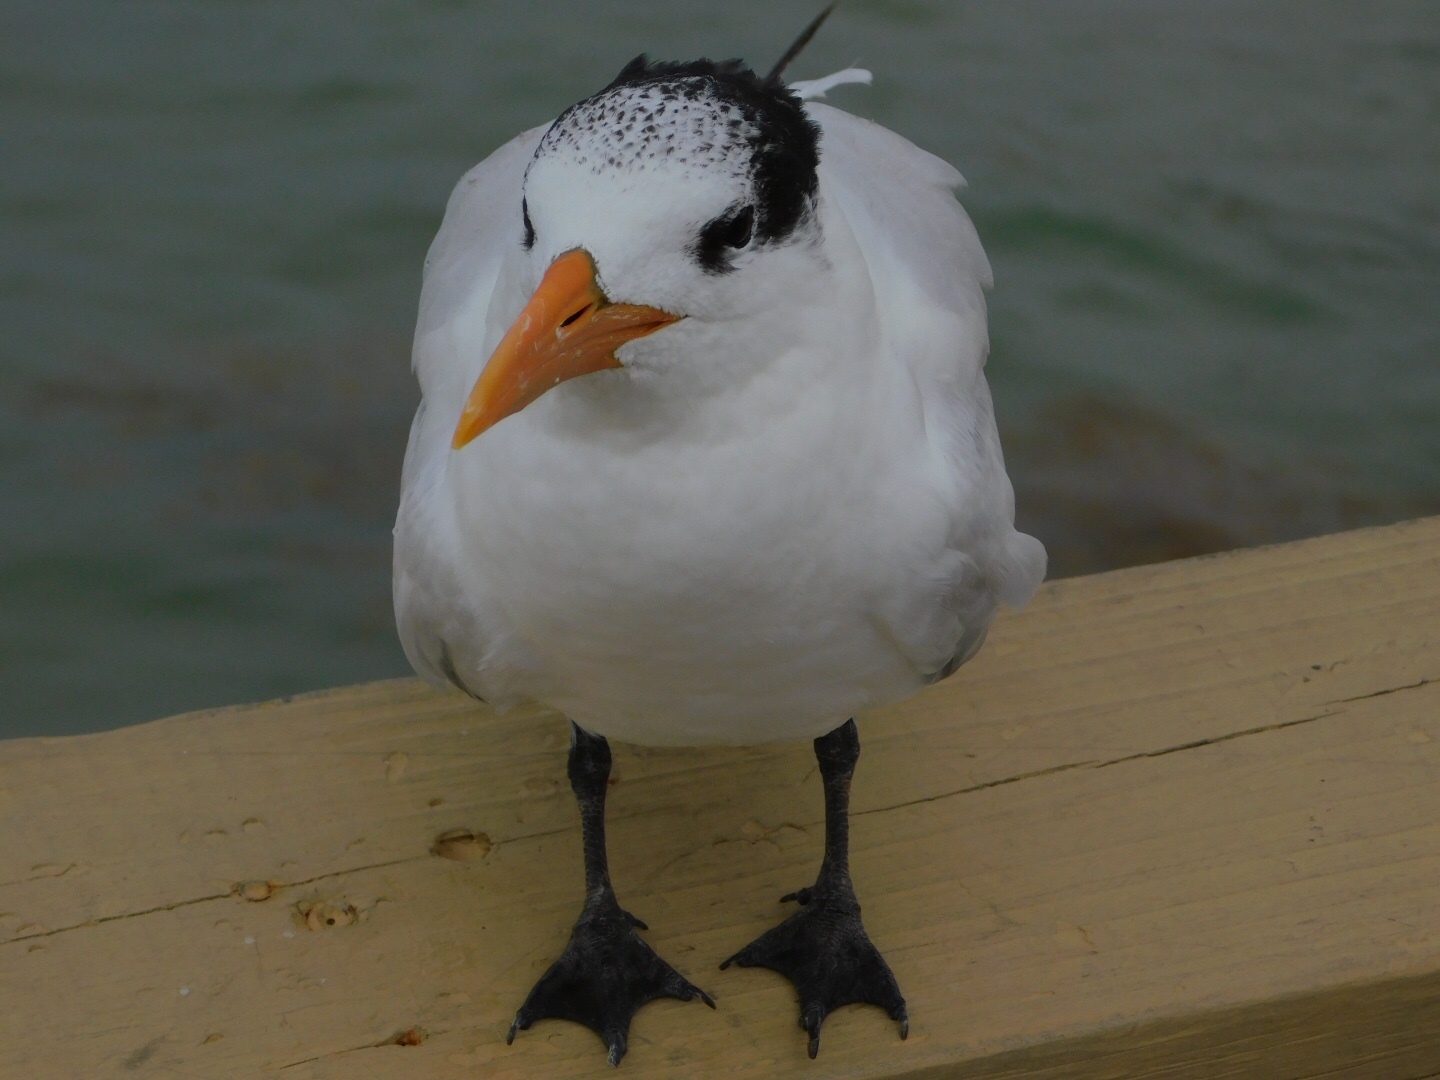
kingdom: Animalia
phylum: Chordata
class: Aves
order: Charadriiformes
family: Laridae
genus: Thalasseus
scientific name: Thalasseus maximus
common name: Royal tern
